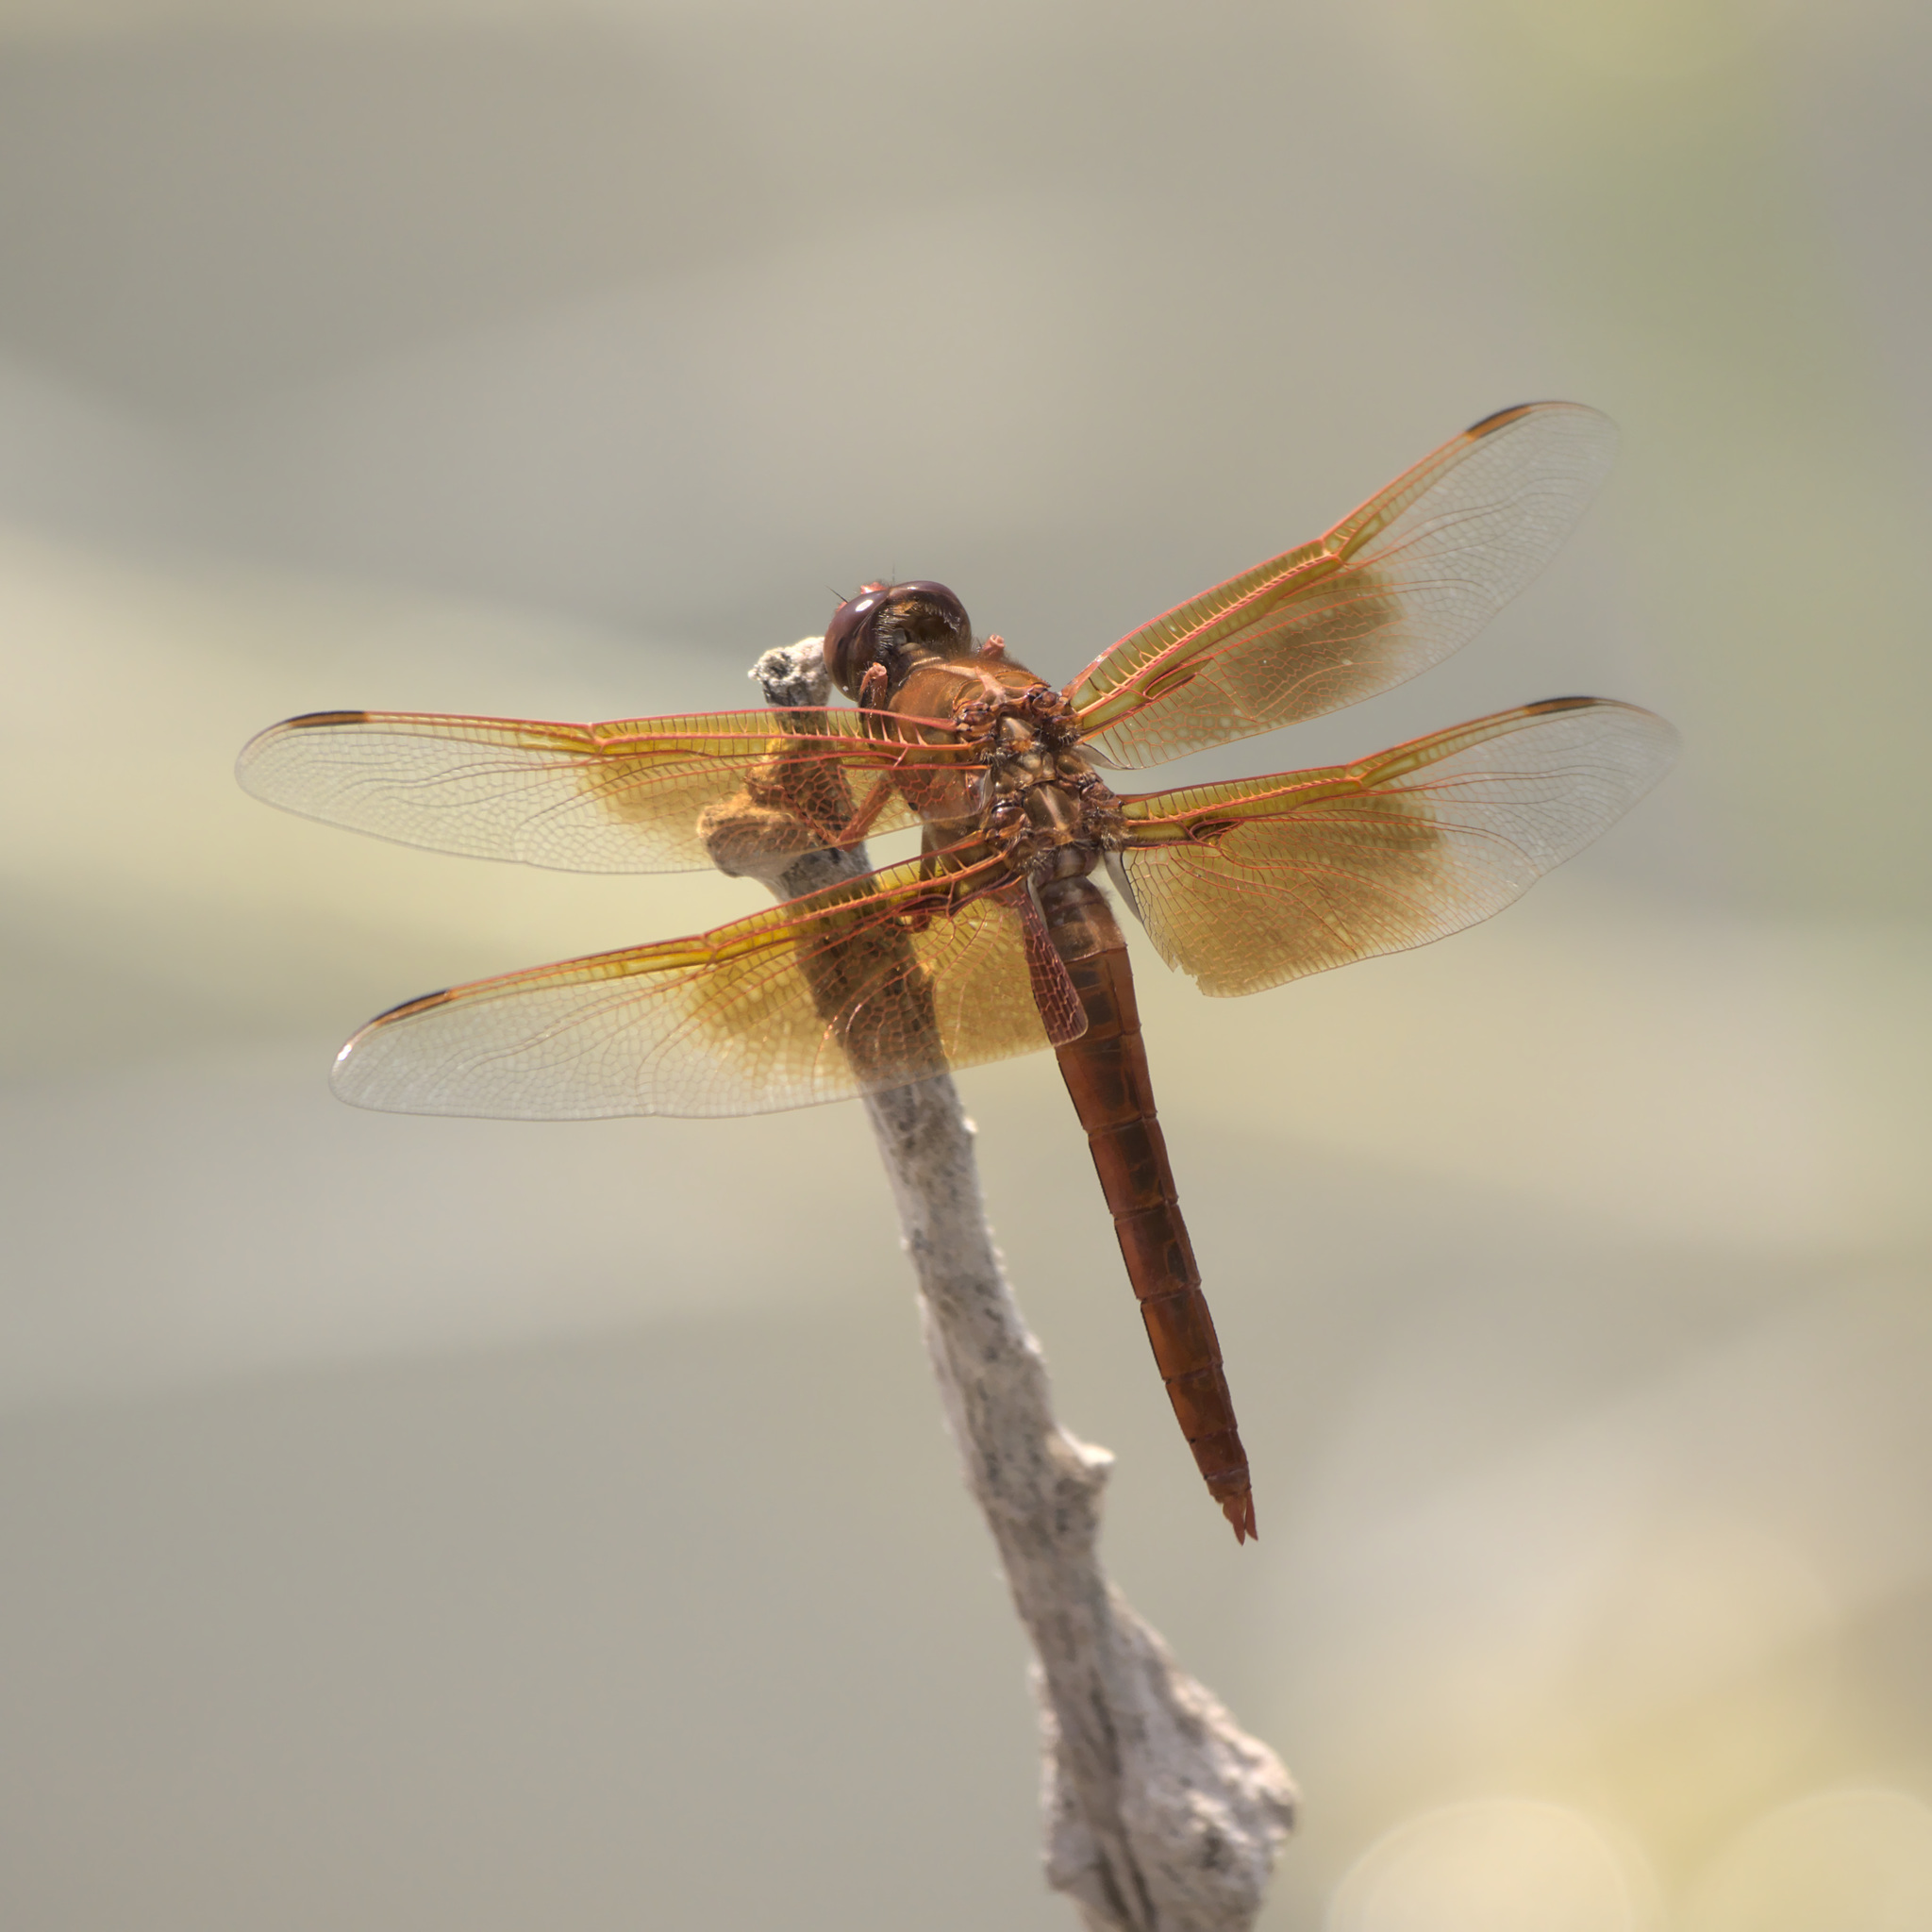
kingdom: Animalia
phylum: Arthropoda
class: Insecta
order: Odonata
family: Libellulidae
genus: Libellula
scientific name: Libellula saturata
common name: Flame skimmer
